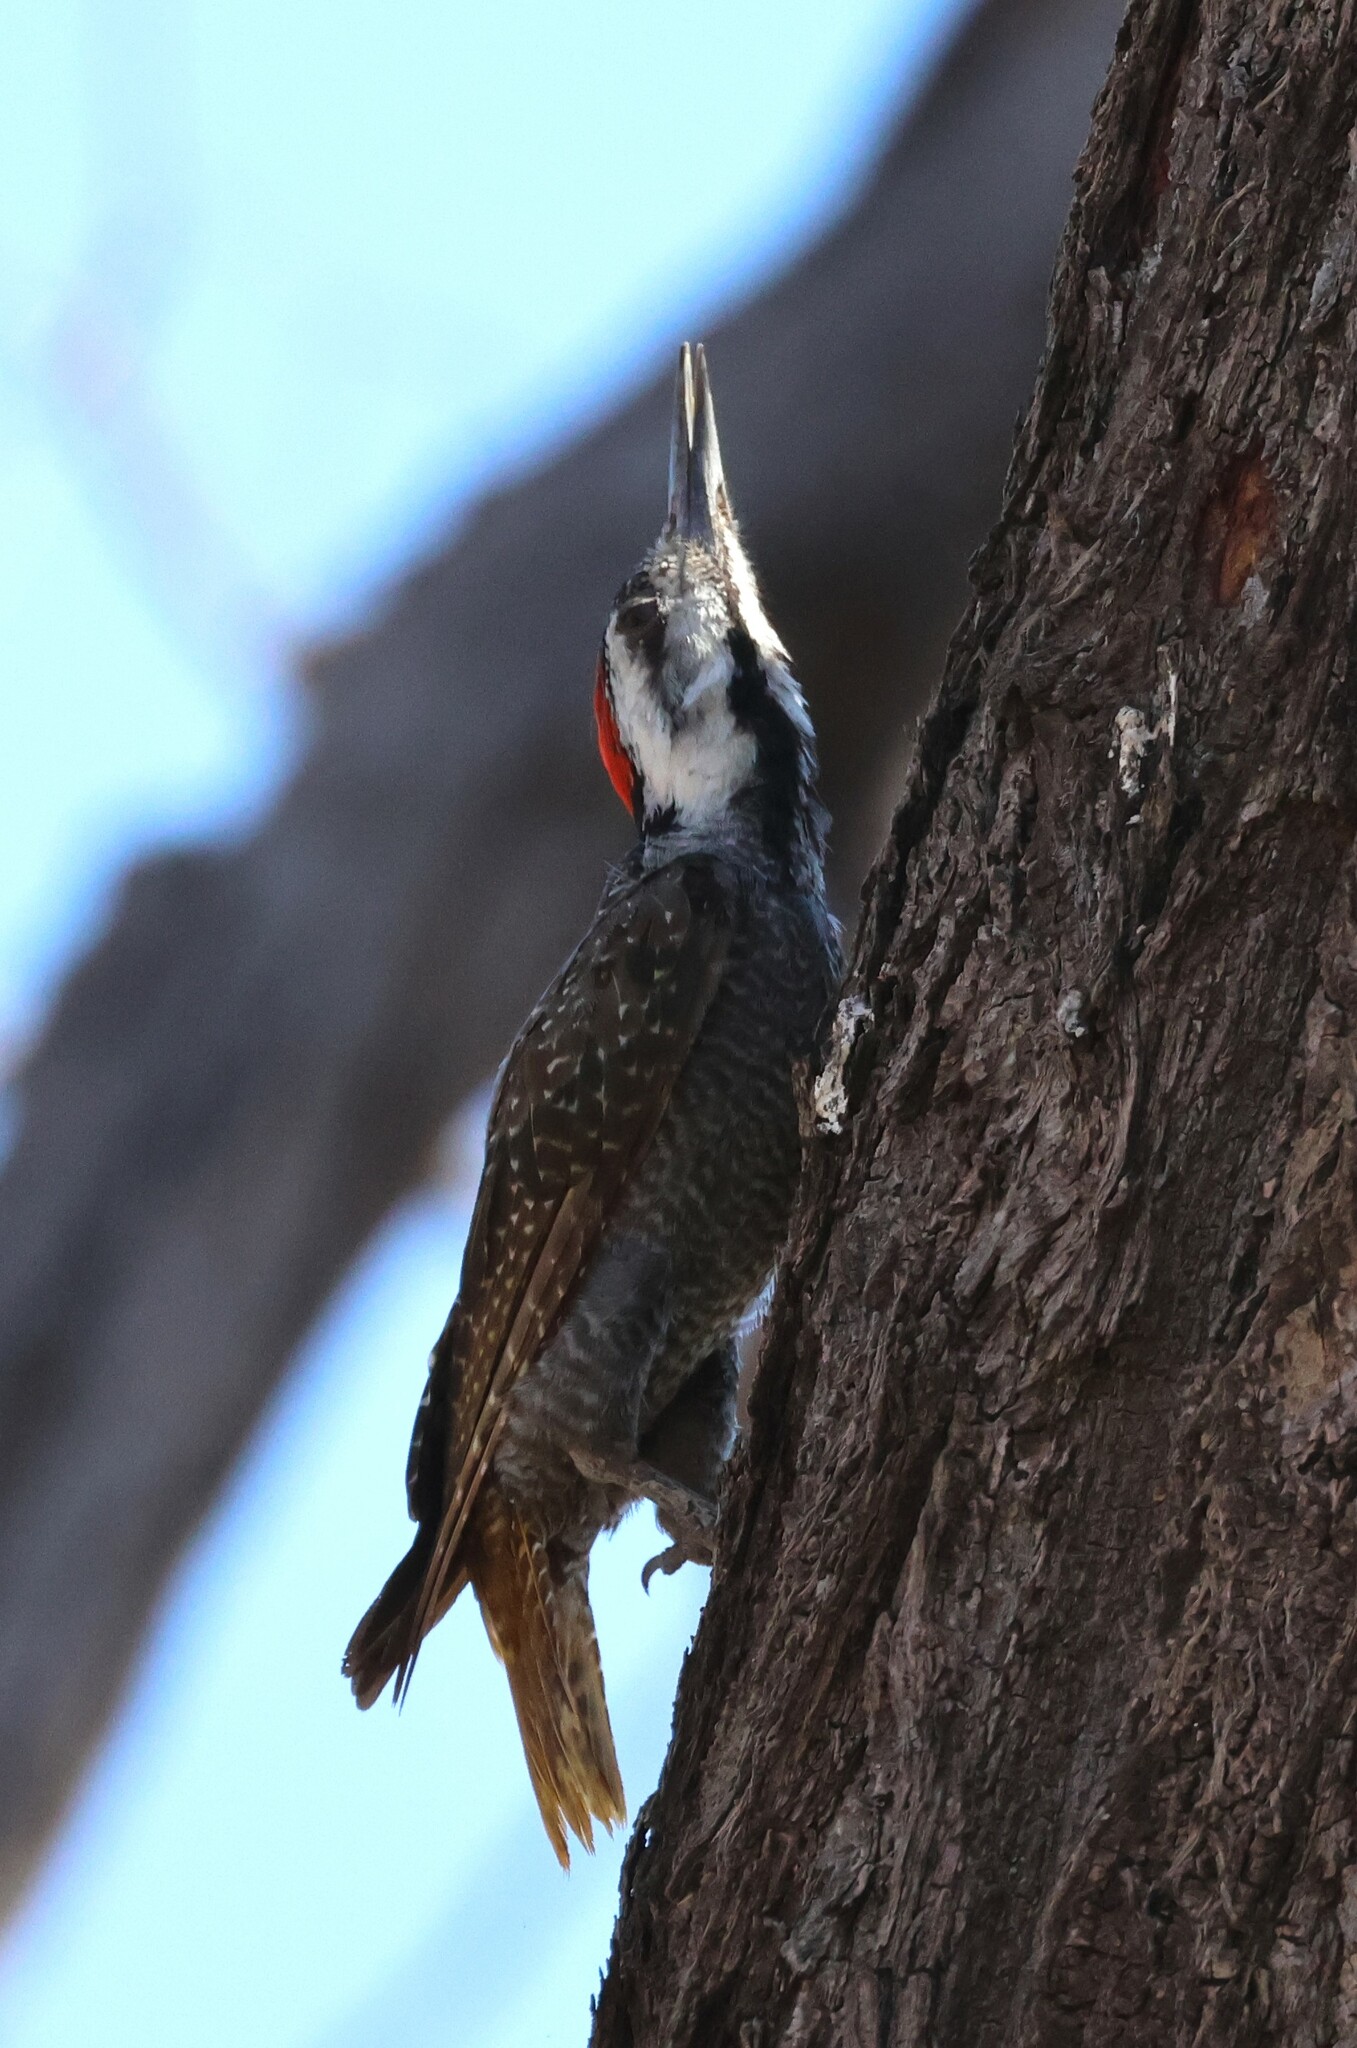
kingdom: Animalia
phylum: Chordata
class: Aves
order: Piciformes
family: Picidae
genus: Chloropicus
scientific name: Chloropicus namaquus
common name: Bearded woodpecker
